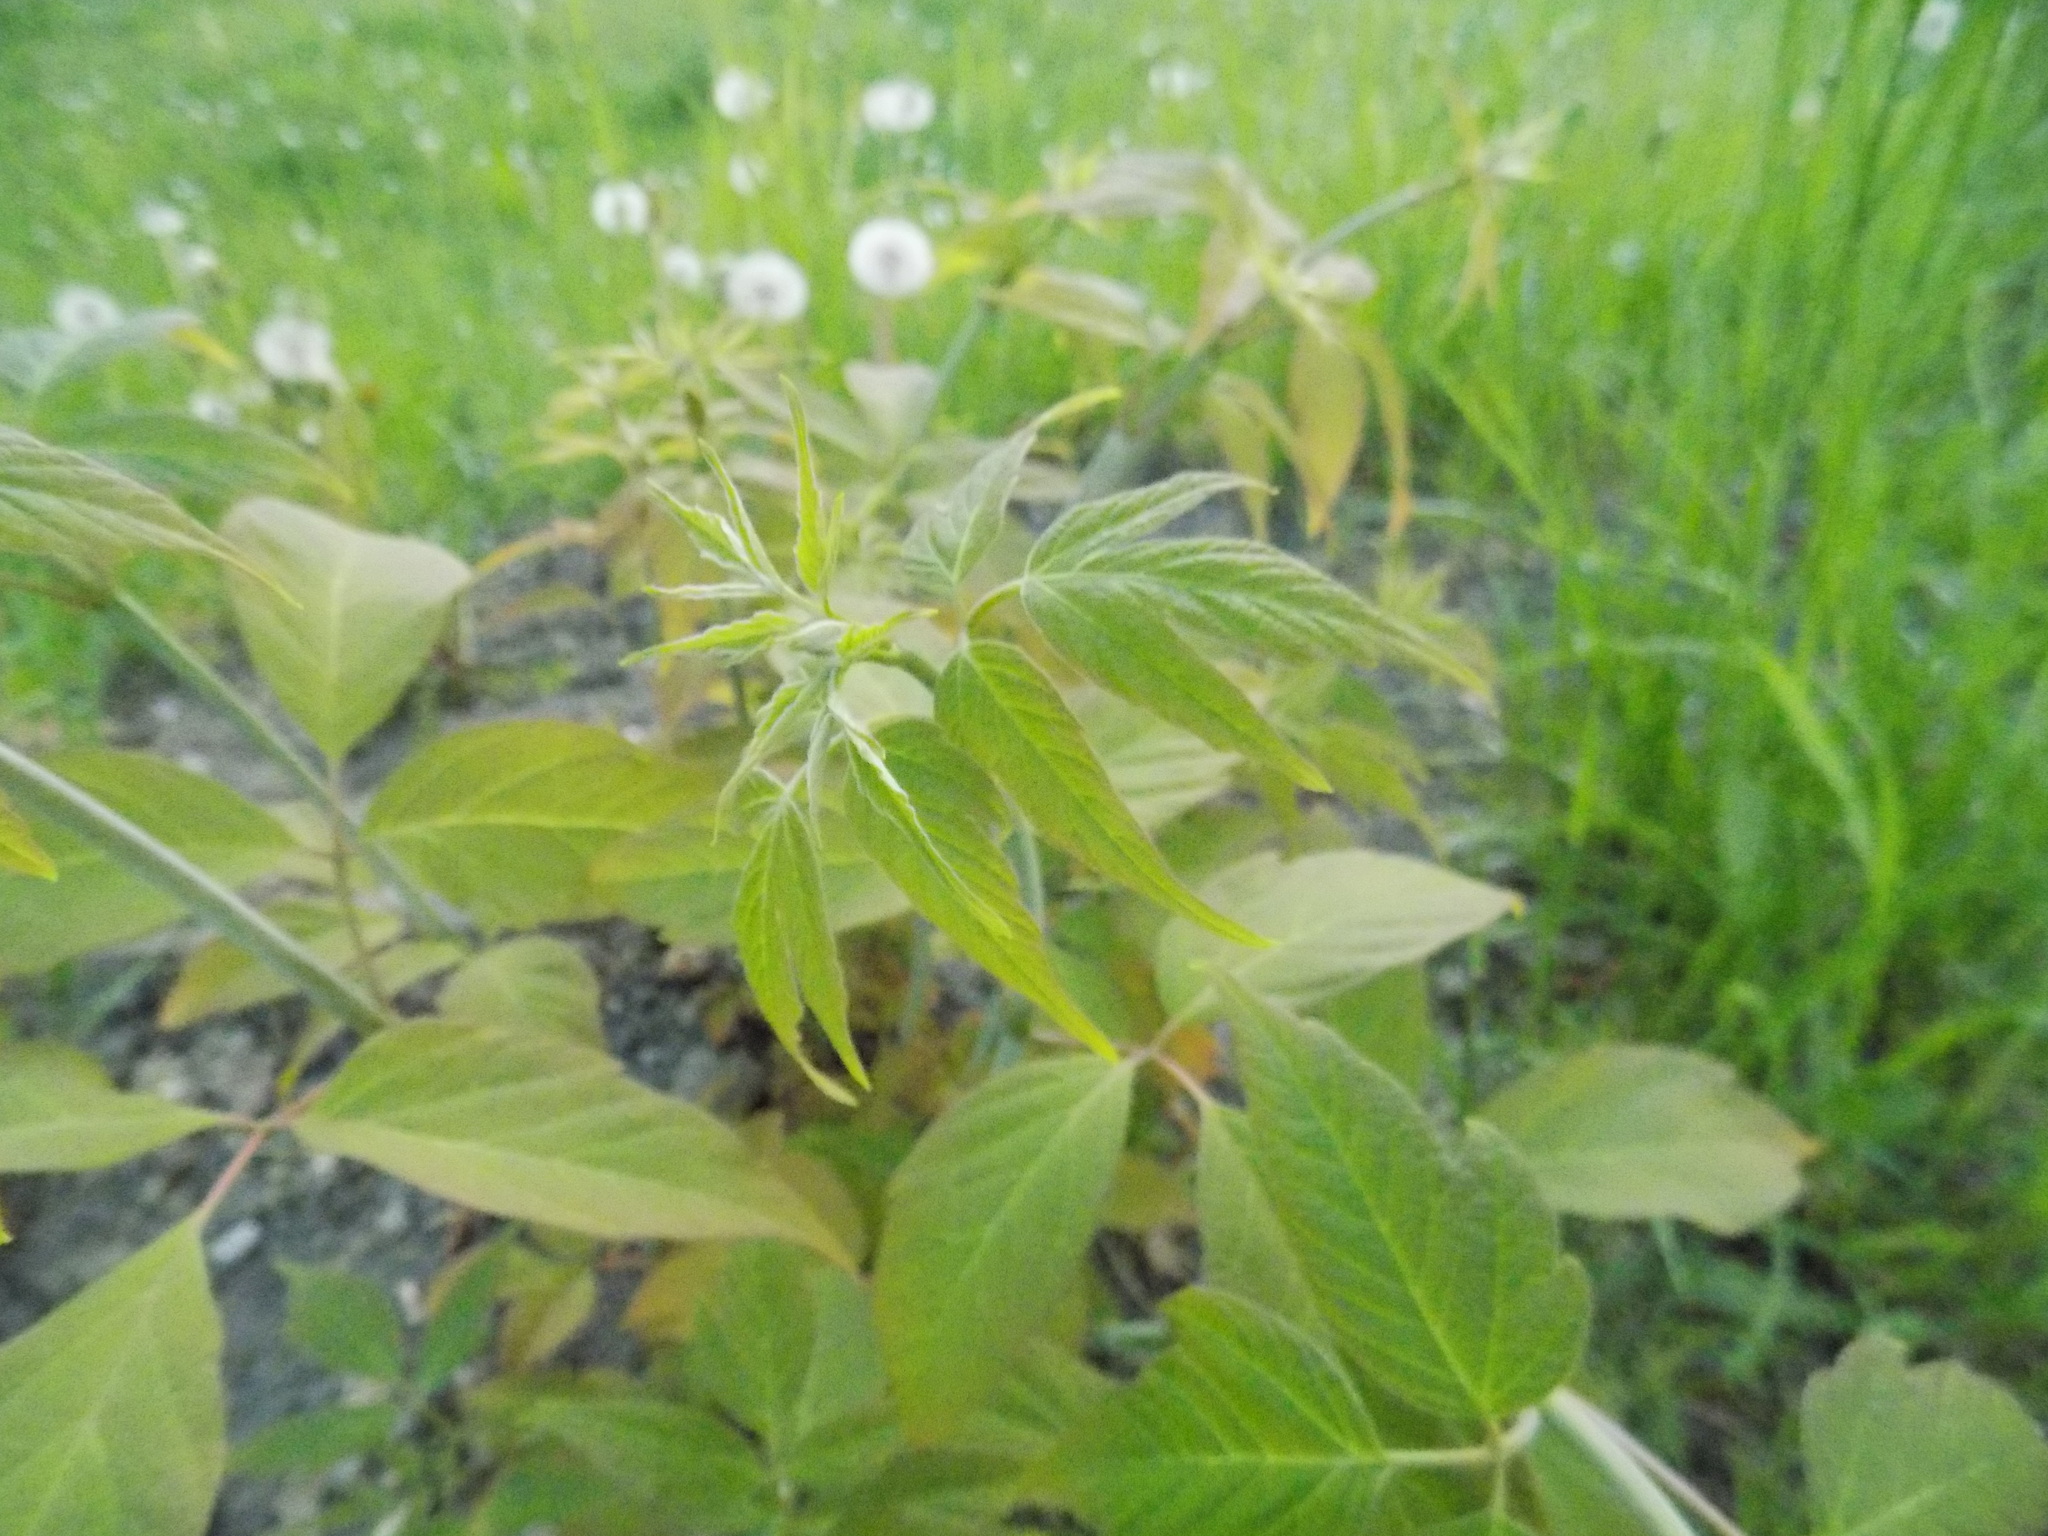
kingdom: Plantae
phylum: Tracheophyta
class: Magnoliopsida
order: Sapindales
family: Sapindaceae
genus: Acer
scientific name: Acer negundo
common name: Ashleaf maple
